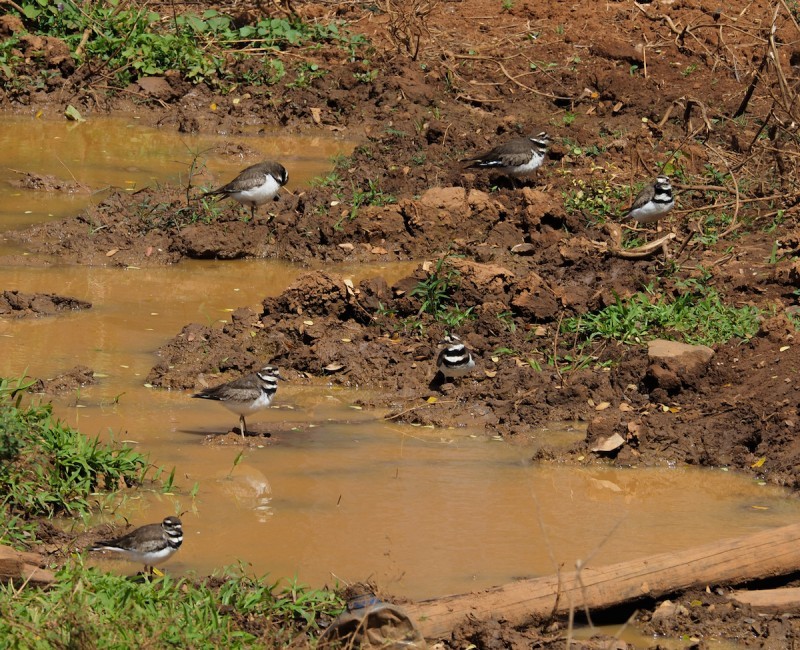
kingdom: Animalia
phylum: Chordata
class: Aves
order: Charadriiformes
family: Charadriidae
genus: Charadrius
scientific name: Charadrius vociferus
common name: Killdeer
